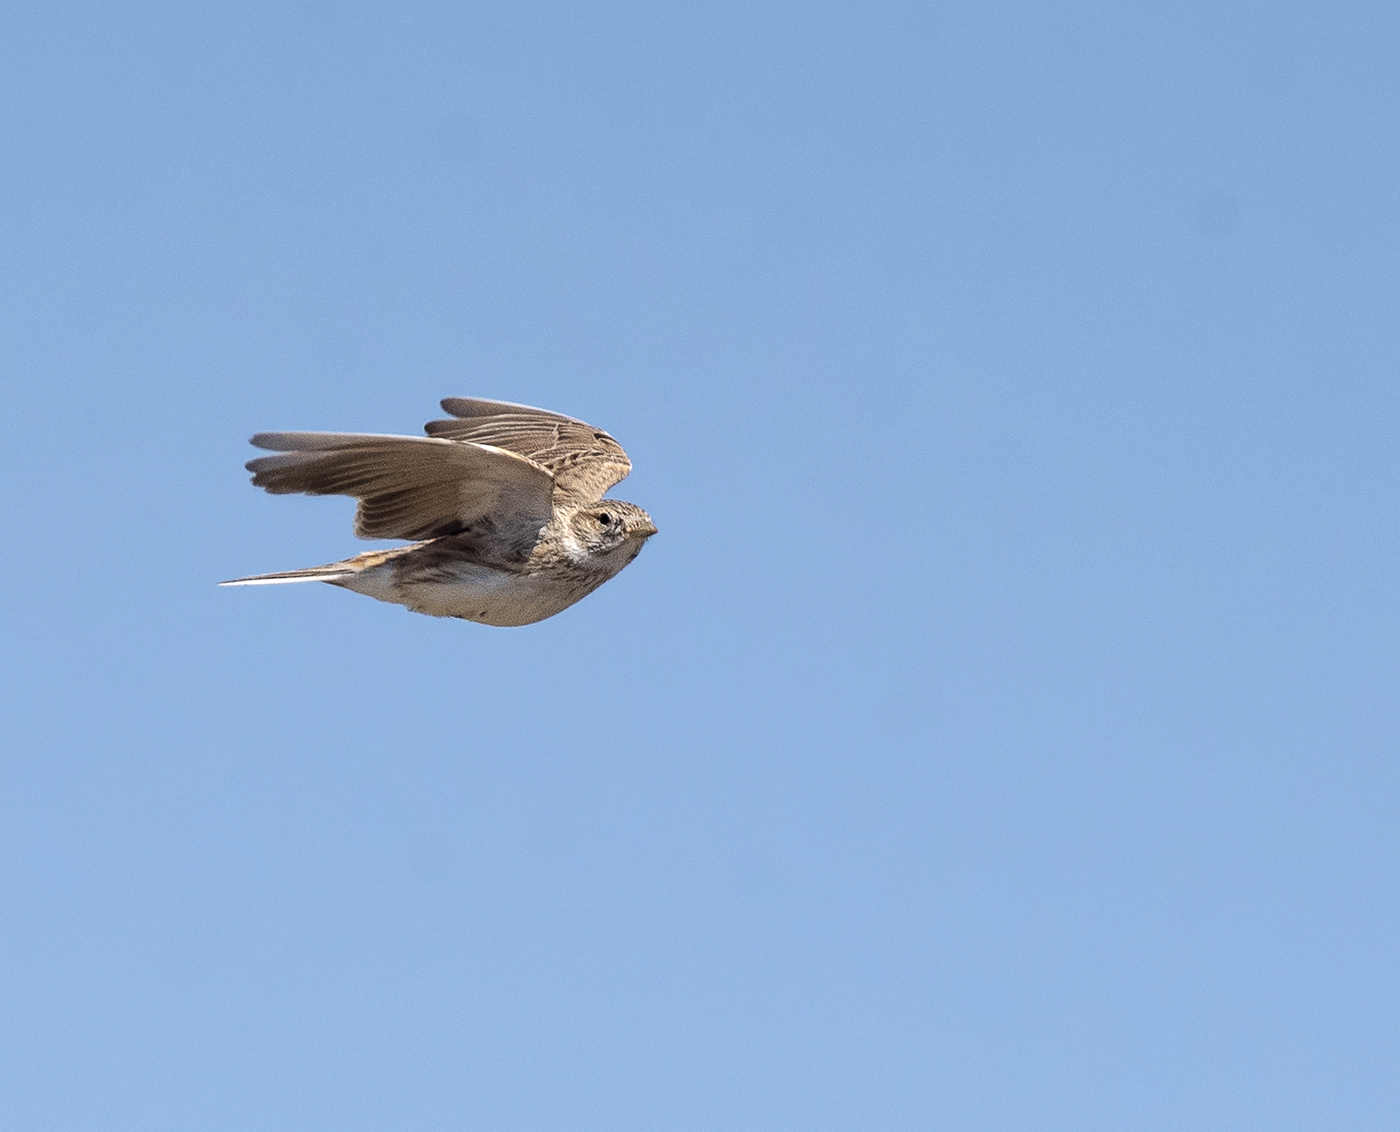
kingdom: Animalia
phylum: Chordata
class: Aves
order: Passeriformes
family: Alaudidae
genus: Calandrella
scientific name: Calandrella rufescens
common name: Lesser short-toed lark
